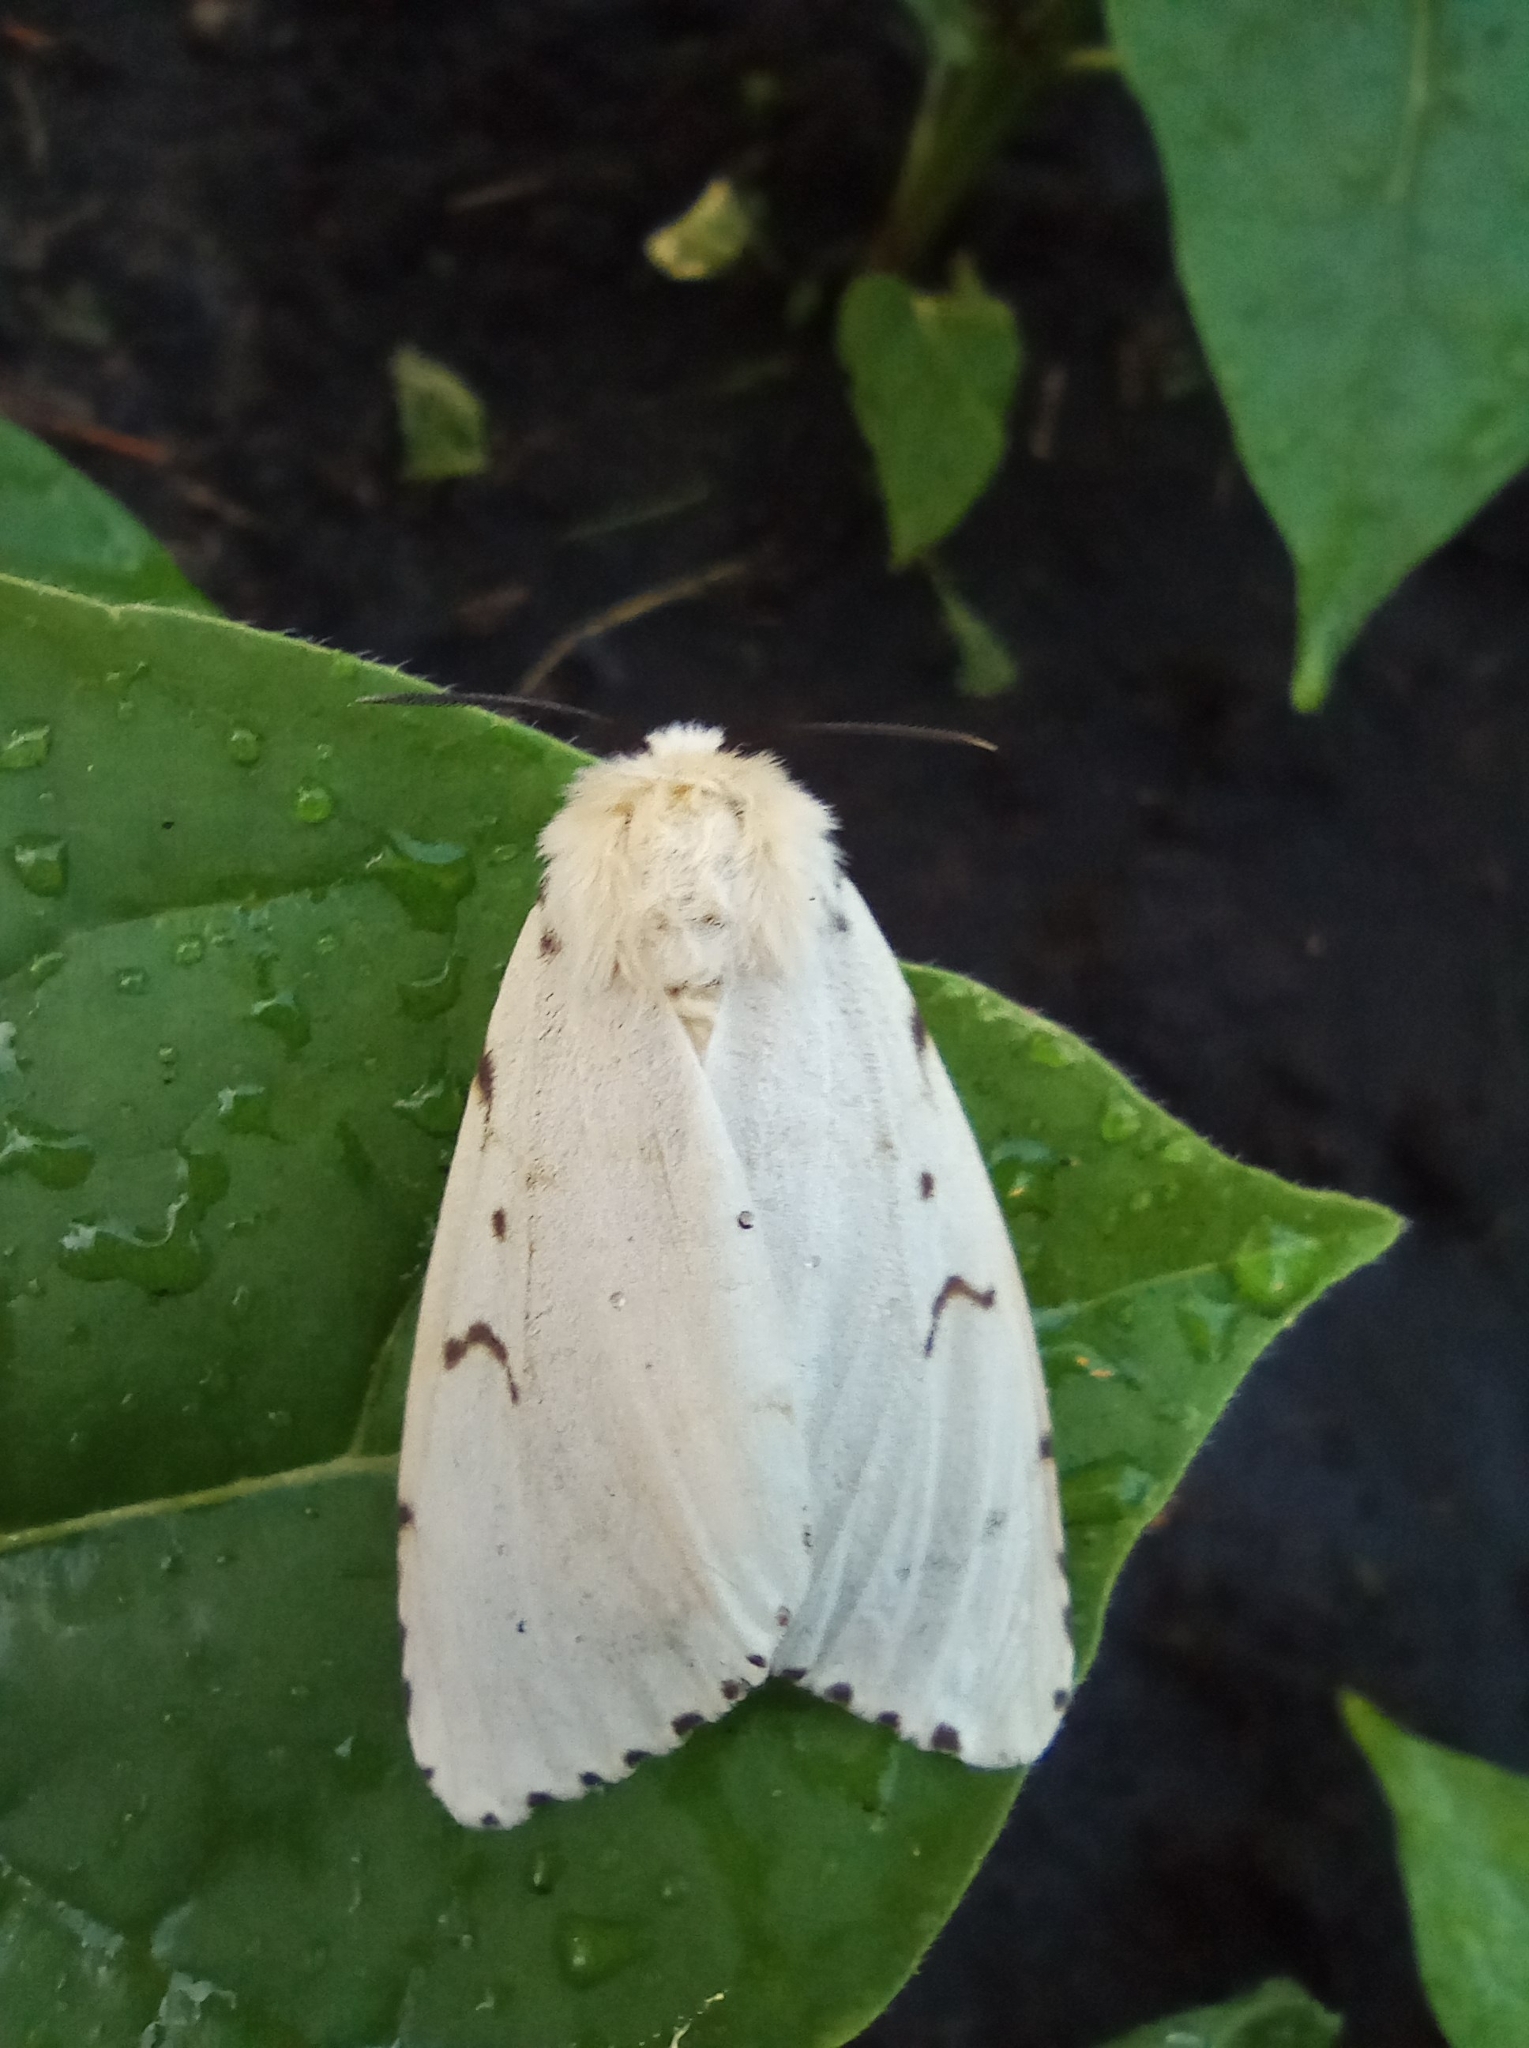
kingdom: Animalia
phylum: Arthropoda
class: Insecta
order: Lepidoptera
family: Erebidae
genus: Lymantria
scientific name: Lymantria dispar
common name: Gypsy moth
